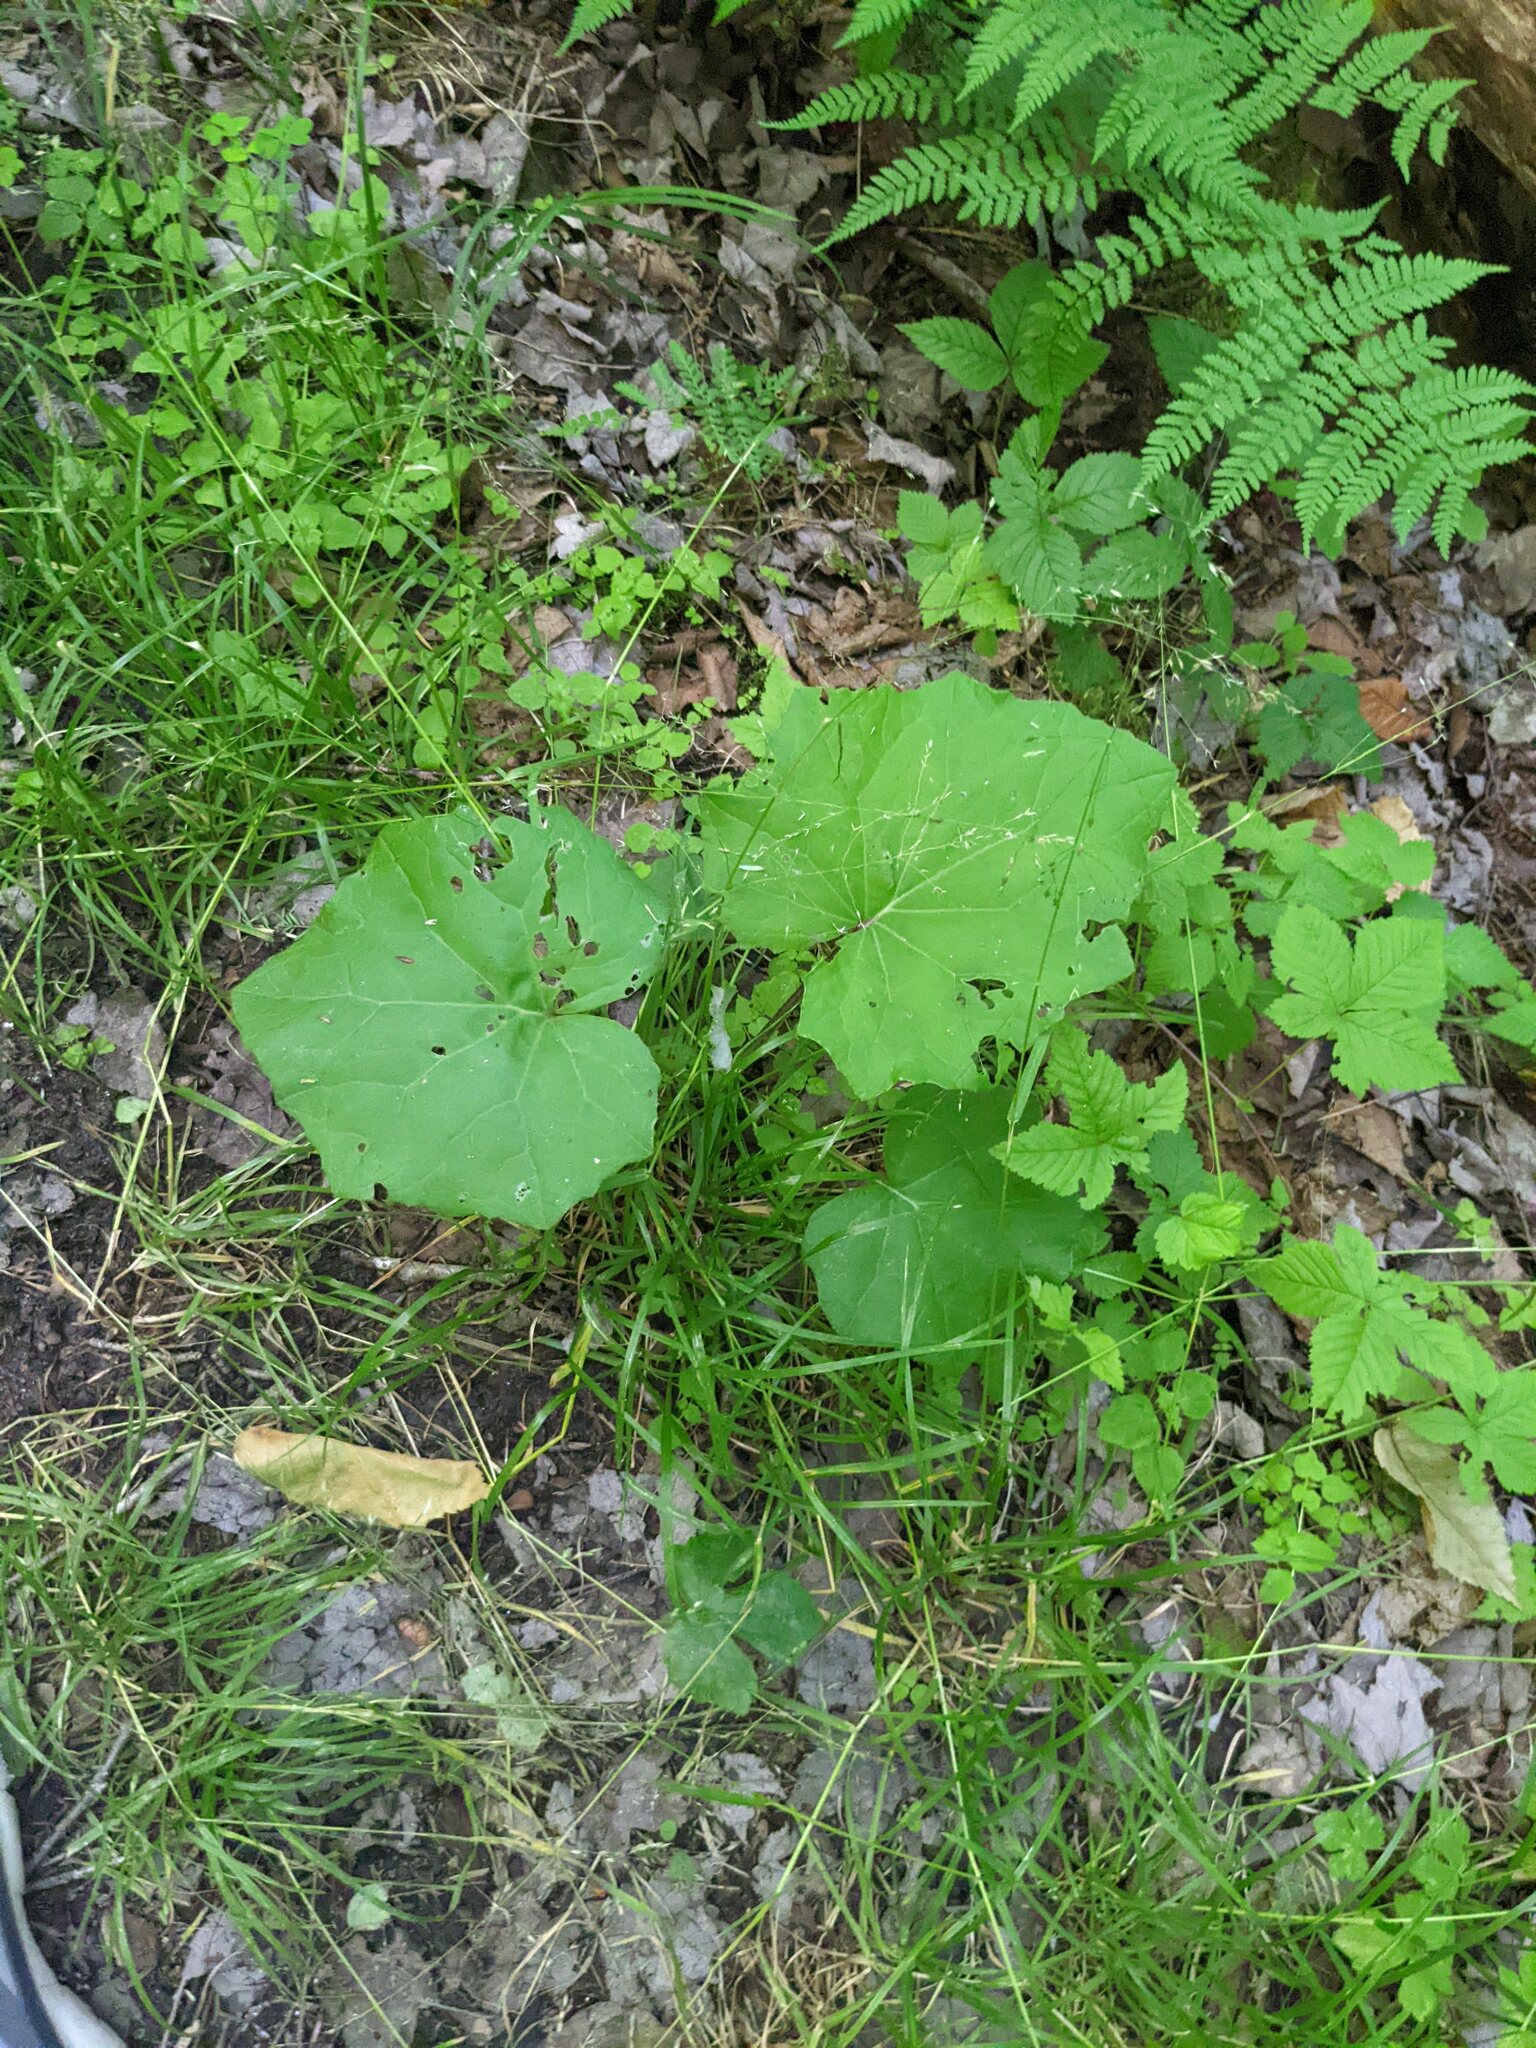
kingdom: Plantae
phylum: Tracheophyta
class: Magnoliopsida
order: Asterales
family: Asteraceae
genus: Tussilago
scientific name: Tussilago farfara
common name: Coltsfoot
